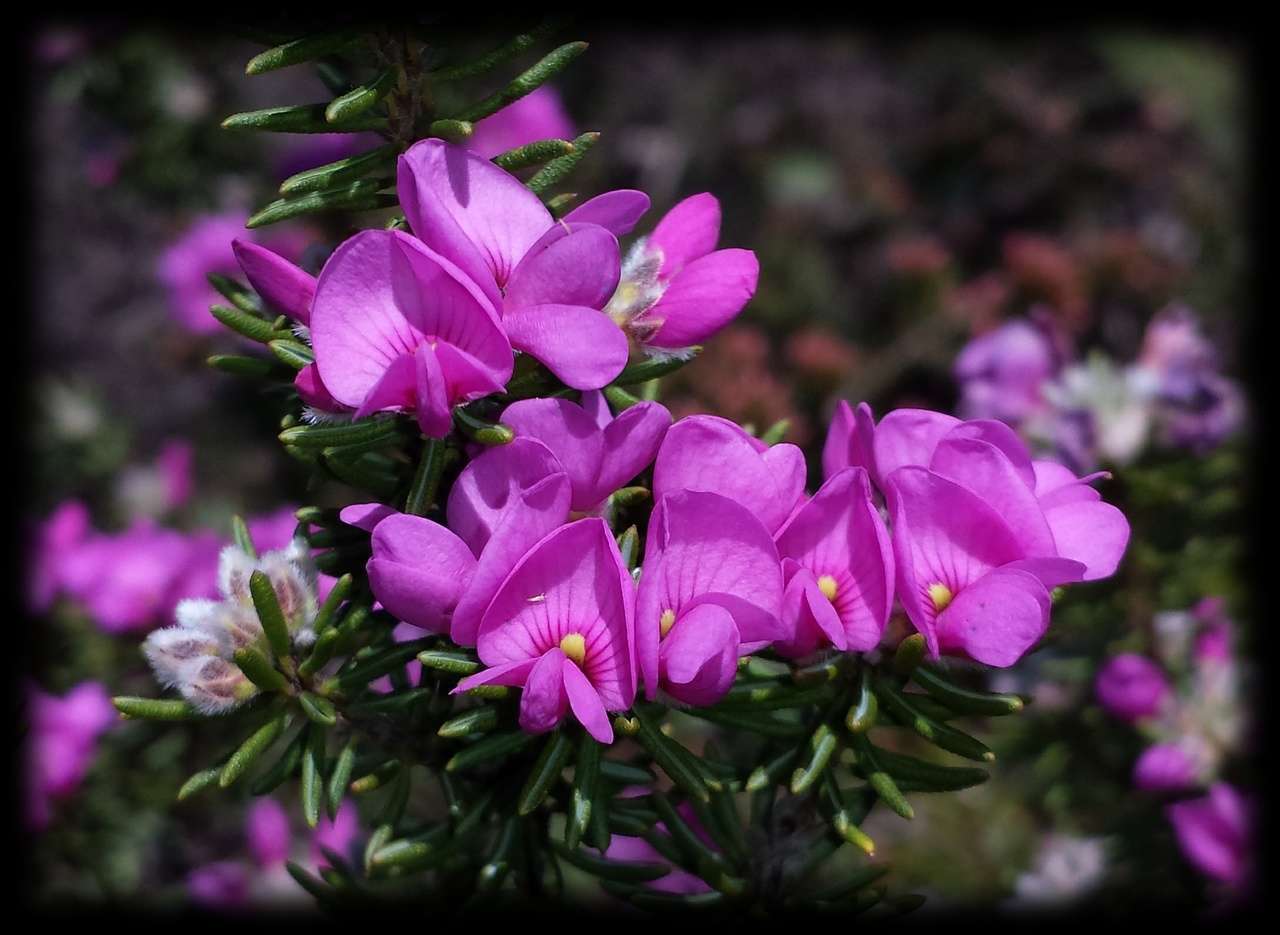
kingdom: Plantae
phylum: Tracheophyta
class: Magnoliopsida
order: Fabales
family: Fabaceae
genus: Pultenaea
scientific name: Pultenaea subalpina
